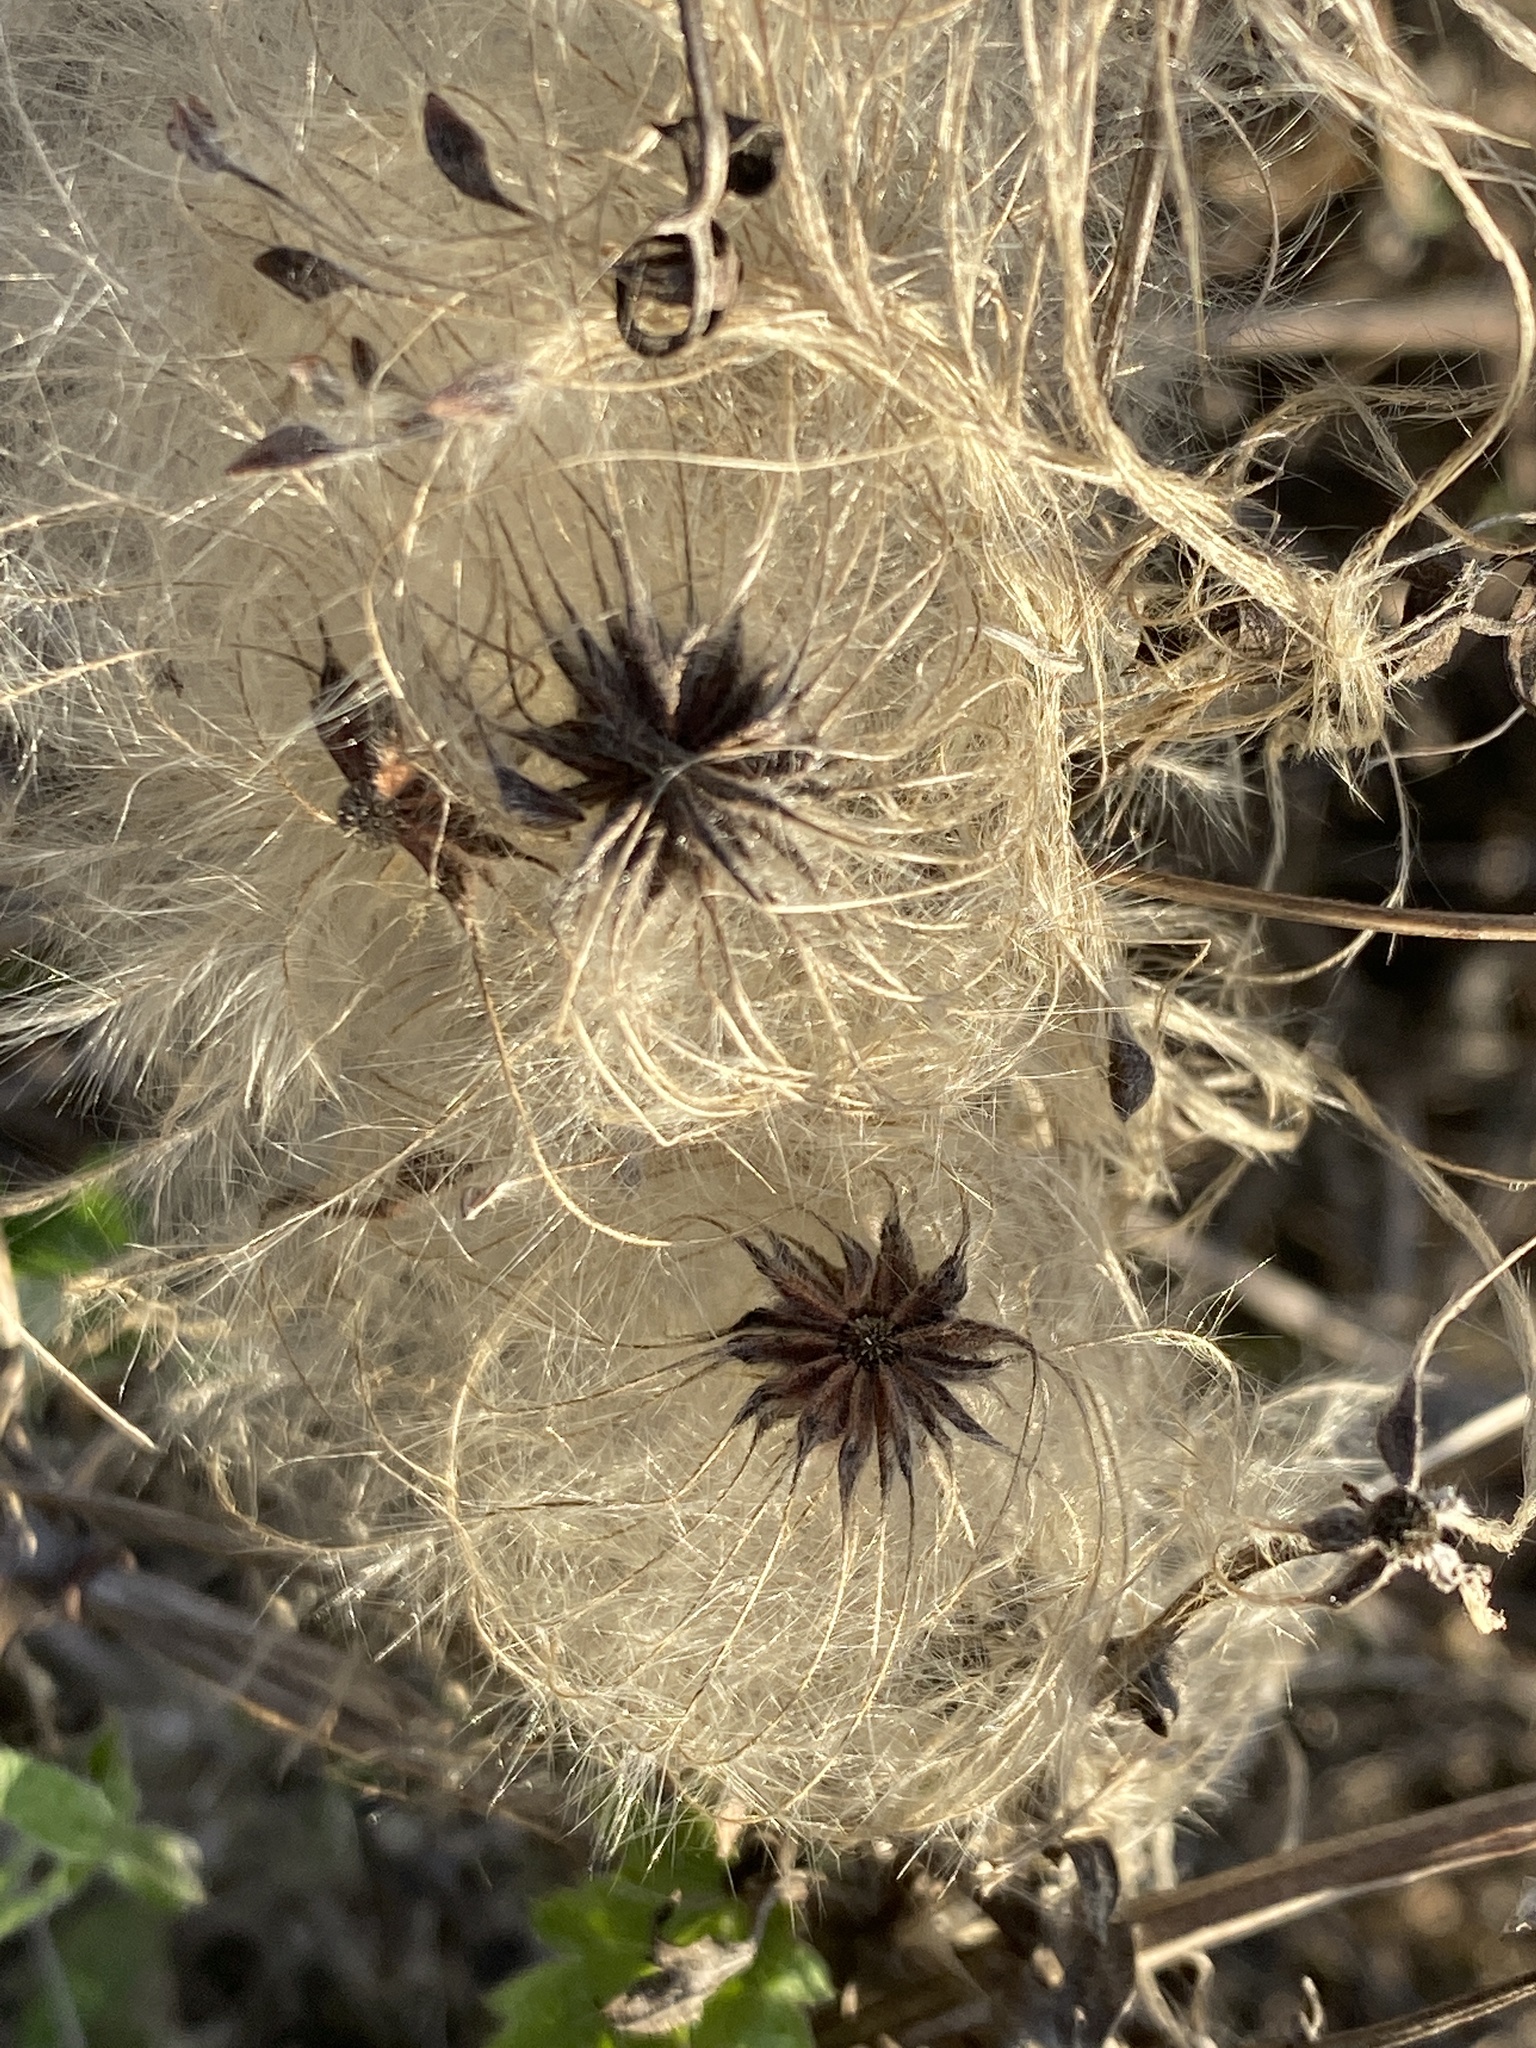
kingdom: Plantae
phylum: Tracheophyta
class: Magnoliopsida
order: Ranunculales
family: Ranunculaceae
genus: Clematis
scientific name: Clematis drummondii
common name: Texas virgin's bower
